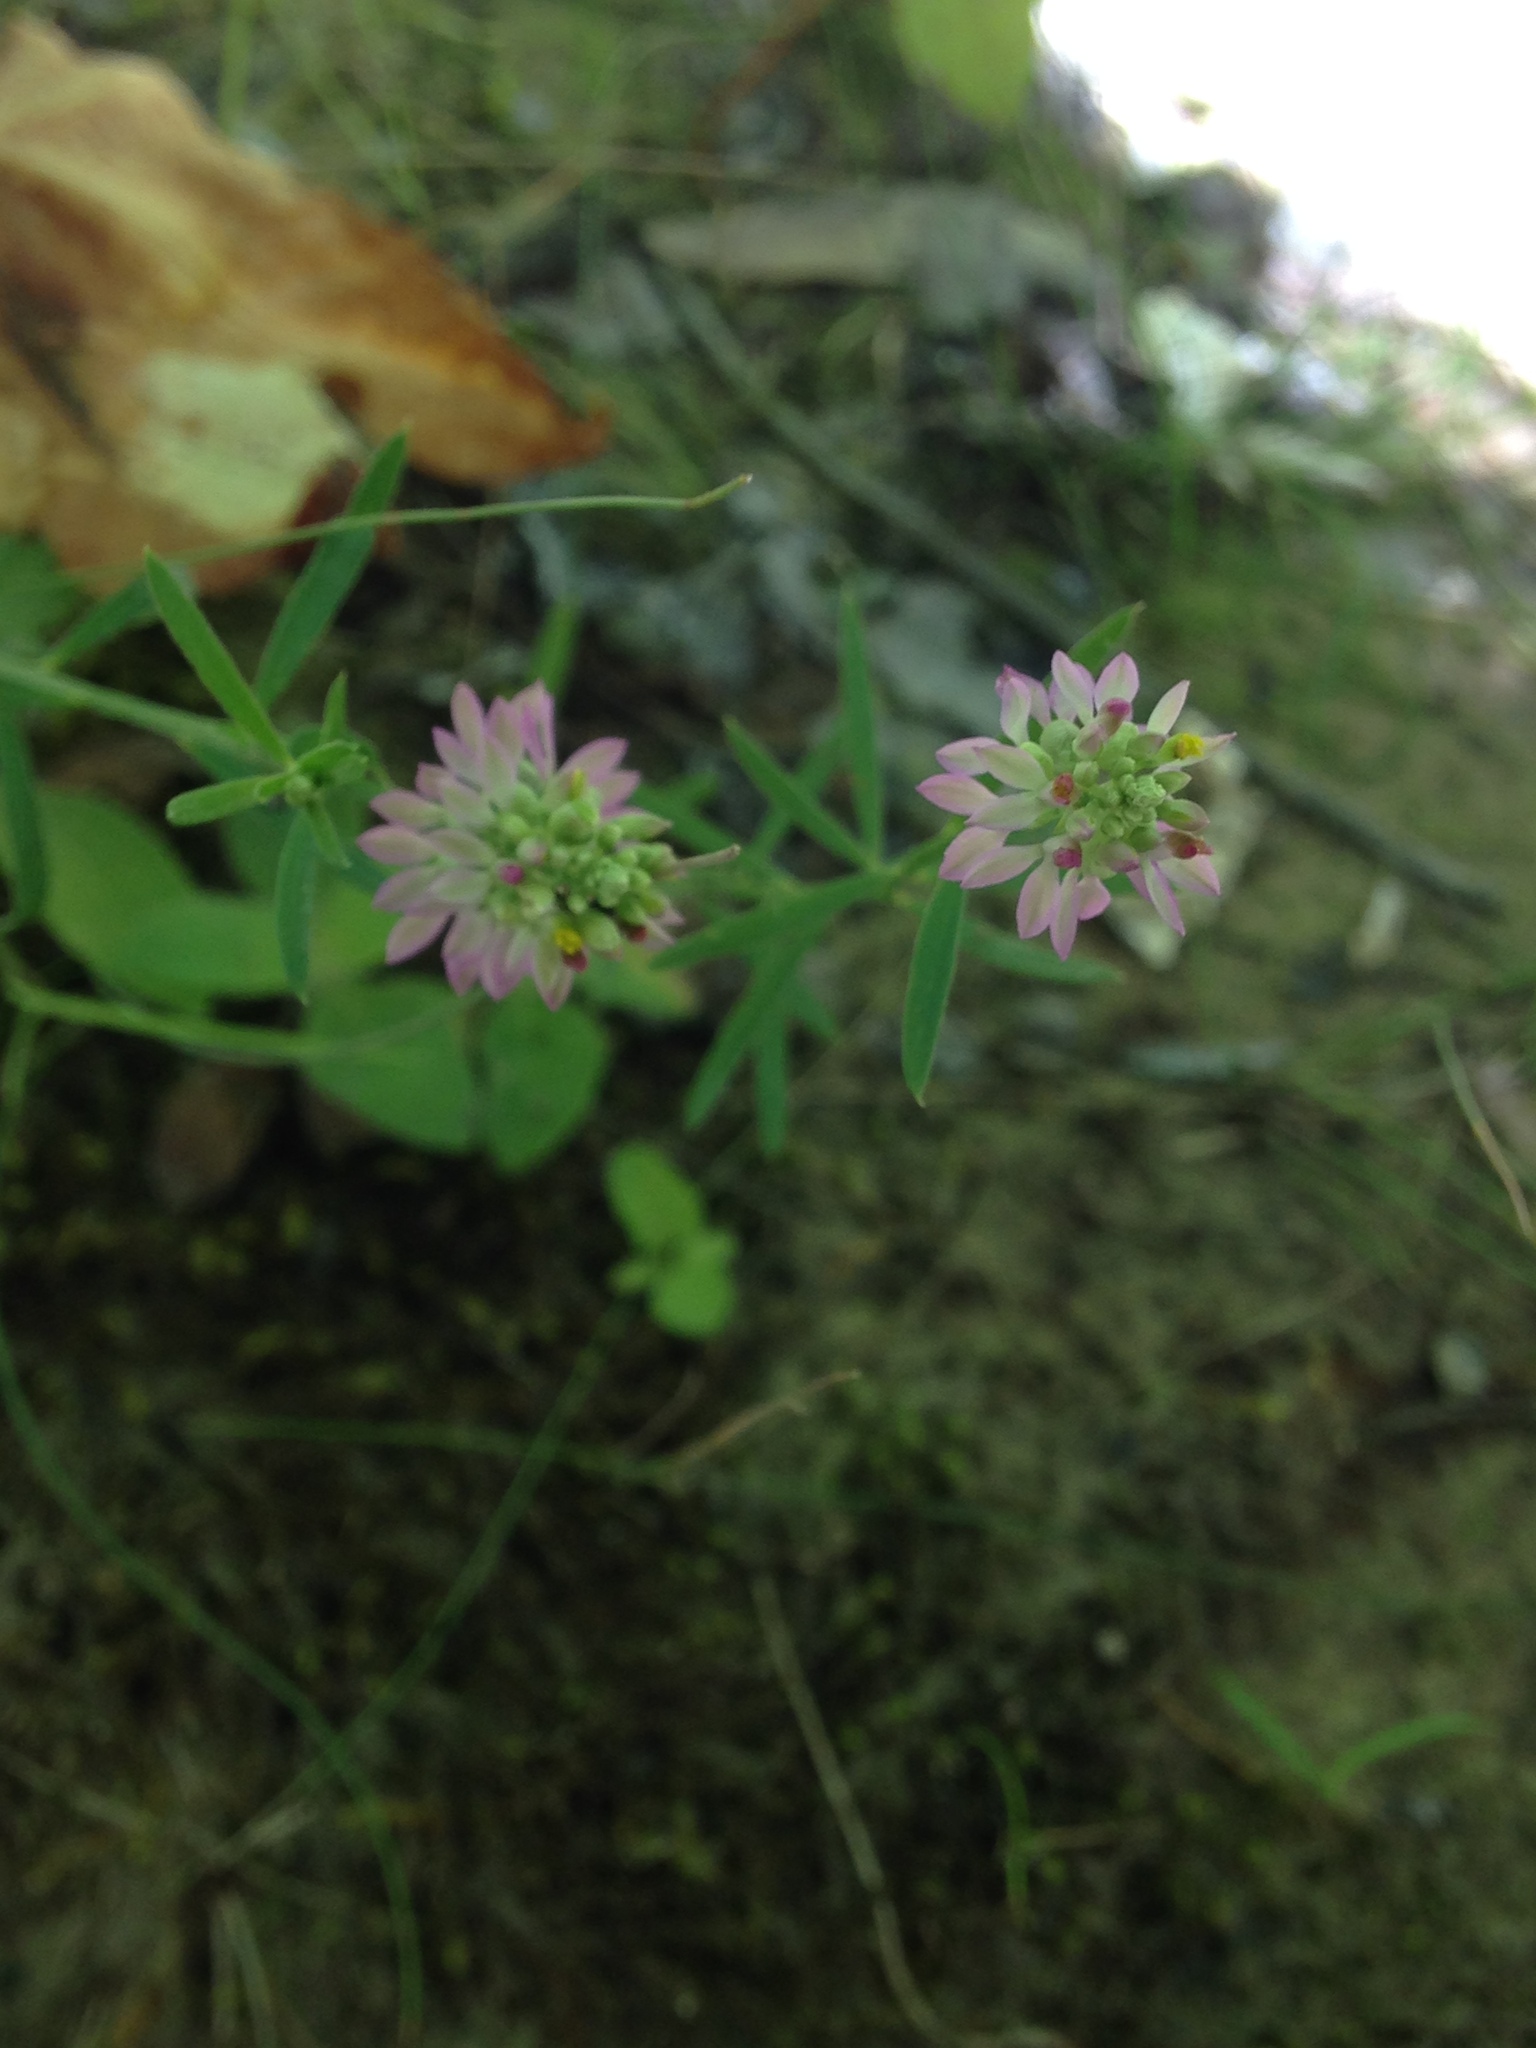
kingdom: Plantae
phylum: Tracheophyta
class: Magnoliopsida
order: Fabales
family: Polygalaceae
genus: Polygala
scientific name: Polygala mariana
